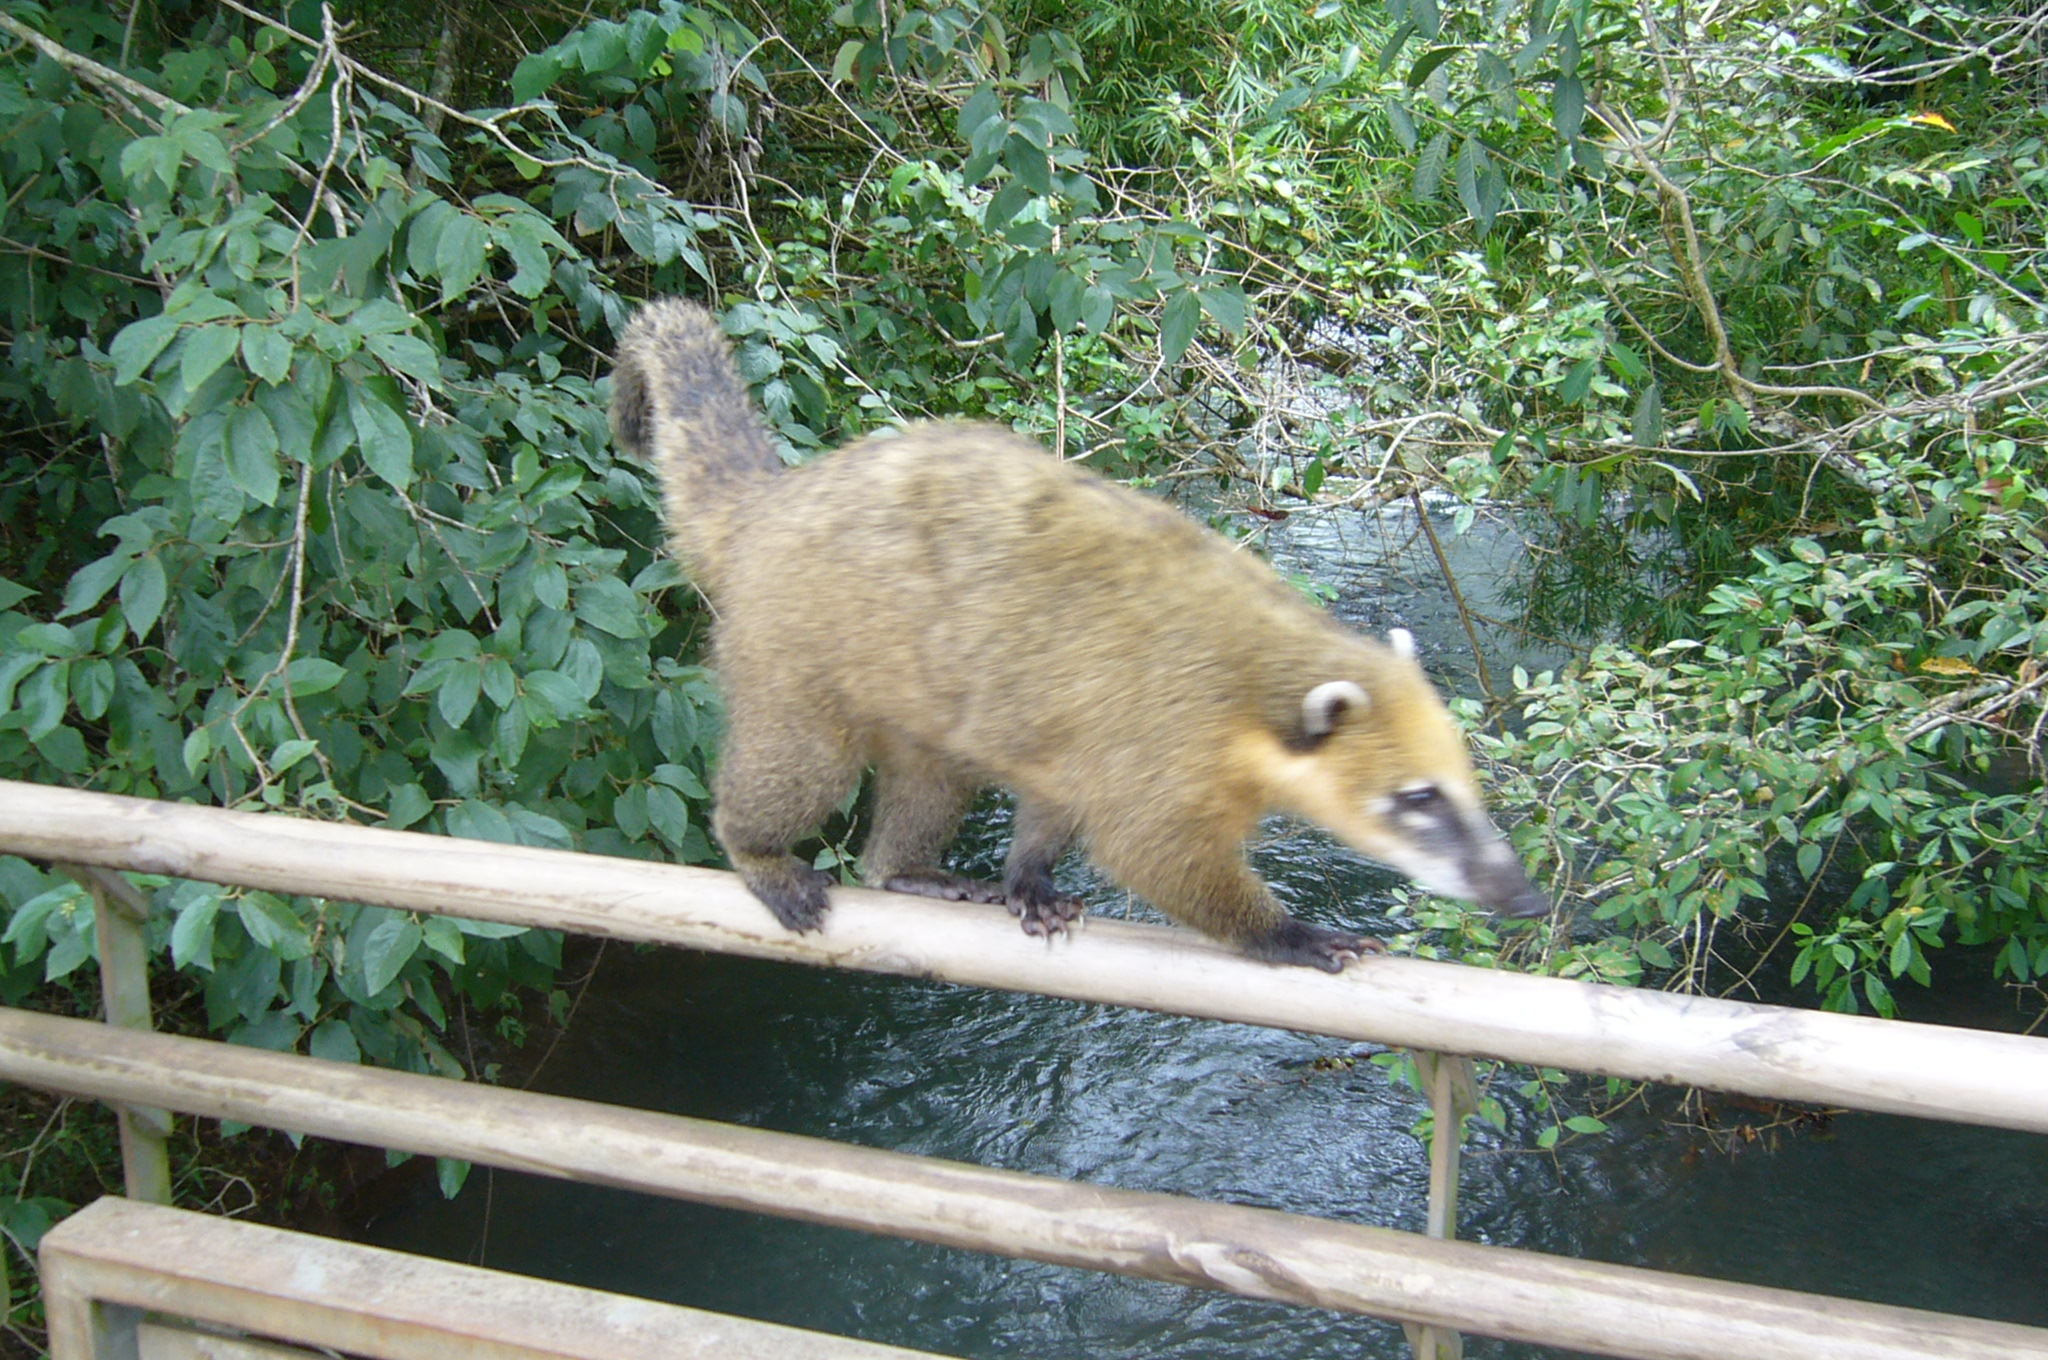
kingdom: Animalia
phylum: Chordata
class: Mammalia
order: Carnivora
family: Procyonidae
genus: Nasua
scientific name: Nasua nasua
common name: South american coati
